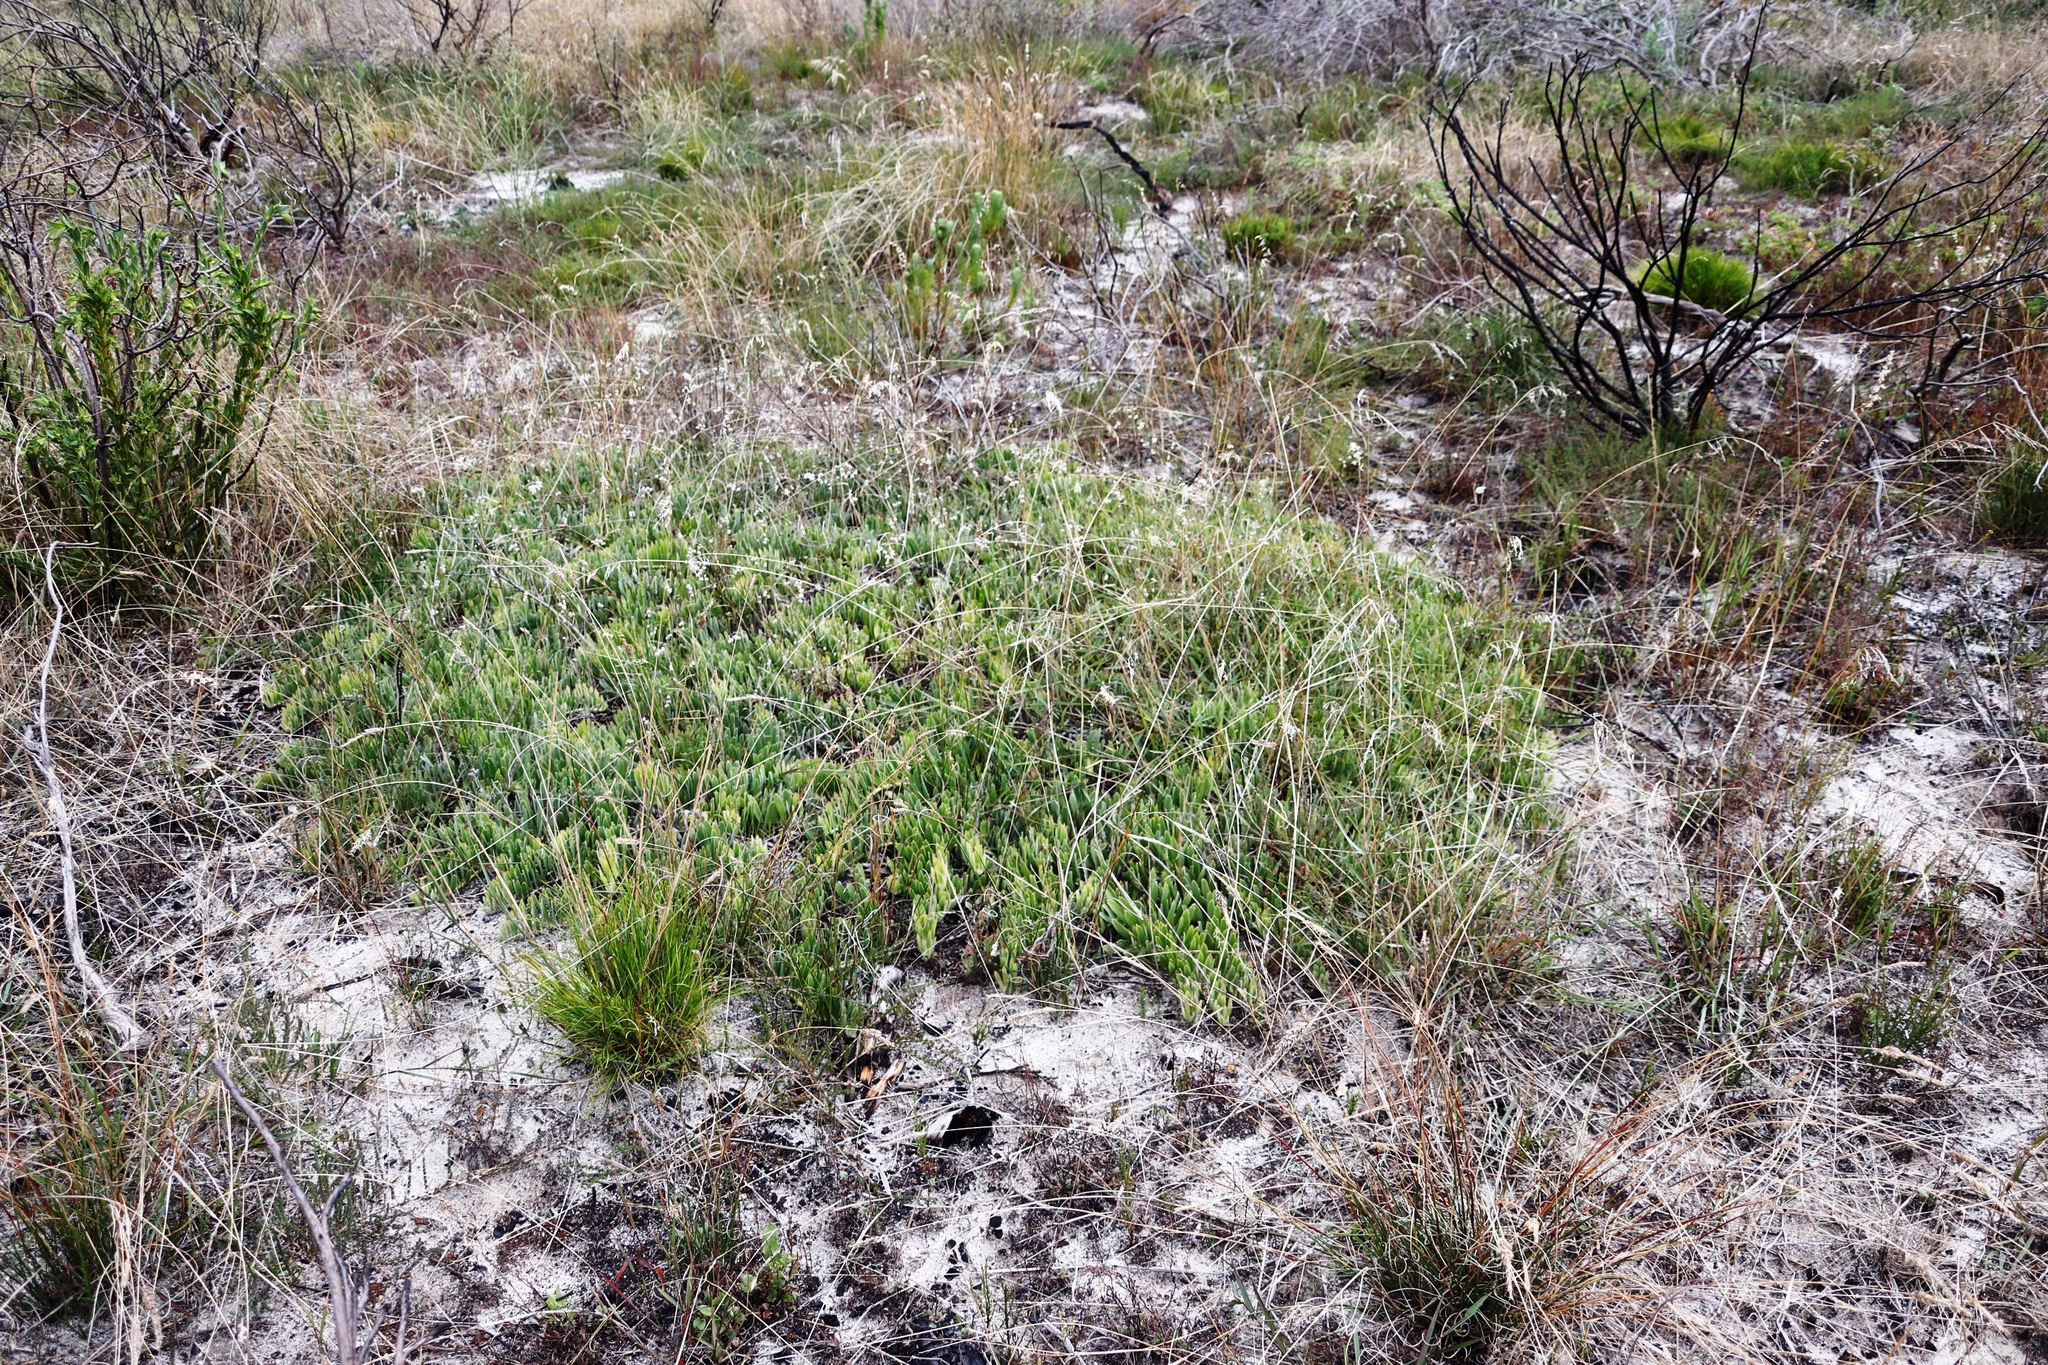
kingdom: Plantae
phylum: Tracheophyta
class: Magnoliopsida
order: Proteales
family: Proteaceae
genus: Leucospermum
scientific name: Leucospermum hypophyllocarpodendron
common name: Snakestem pincushion
